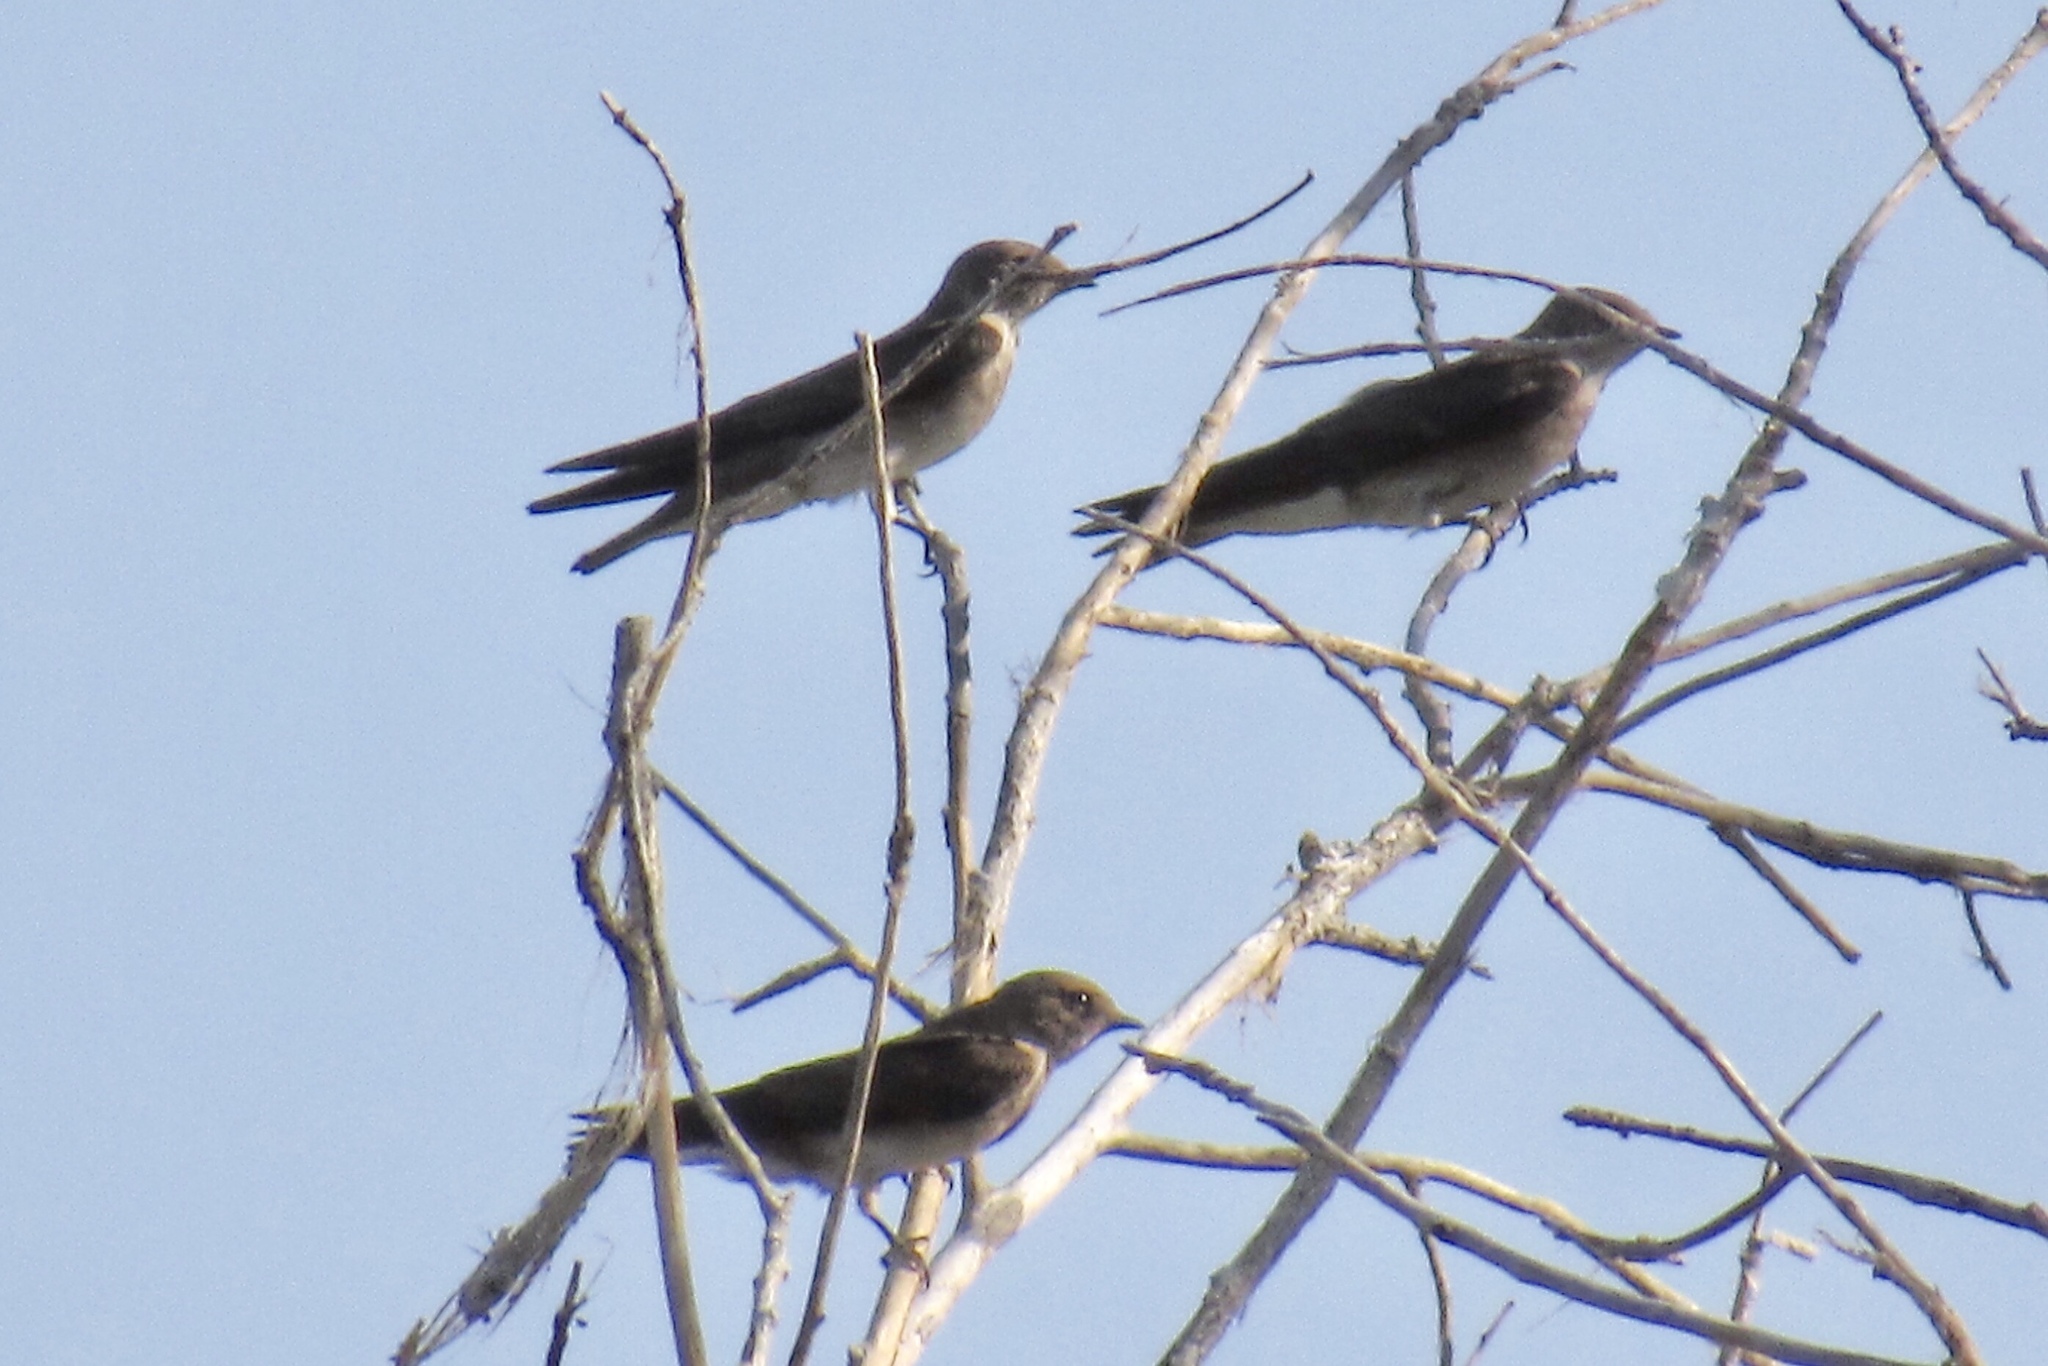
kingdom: Animalia
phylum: Chordata
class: Aves
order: Passeriformes
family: Hirundinidae
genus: Stelgidopteryx
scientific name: Stelgidopteryx serripennis
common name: Northern rough-winged swallow
